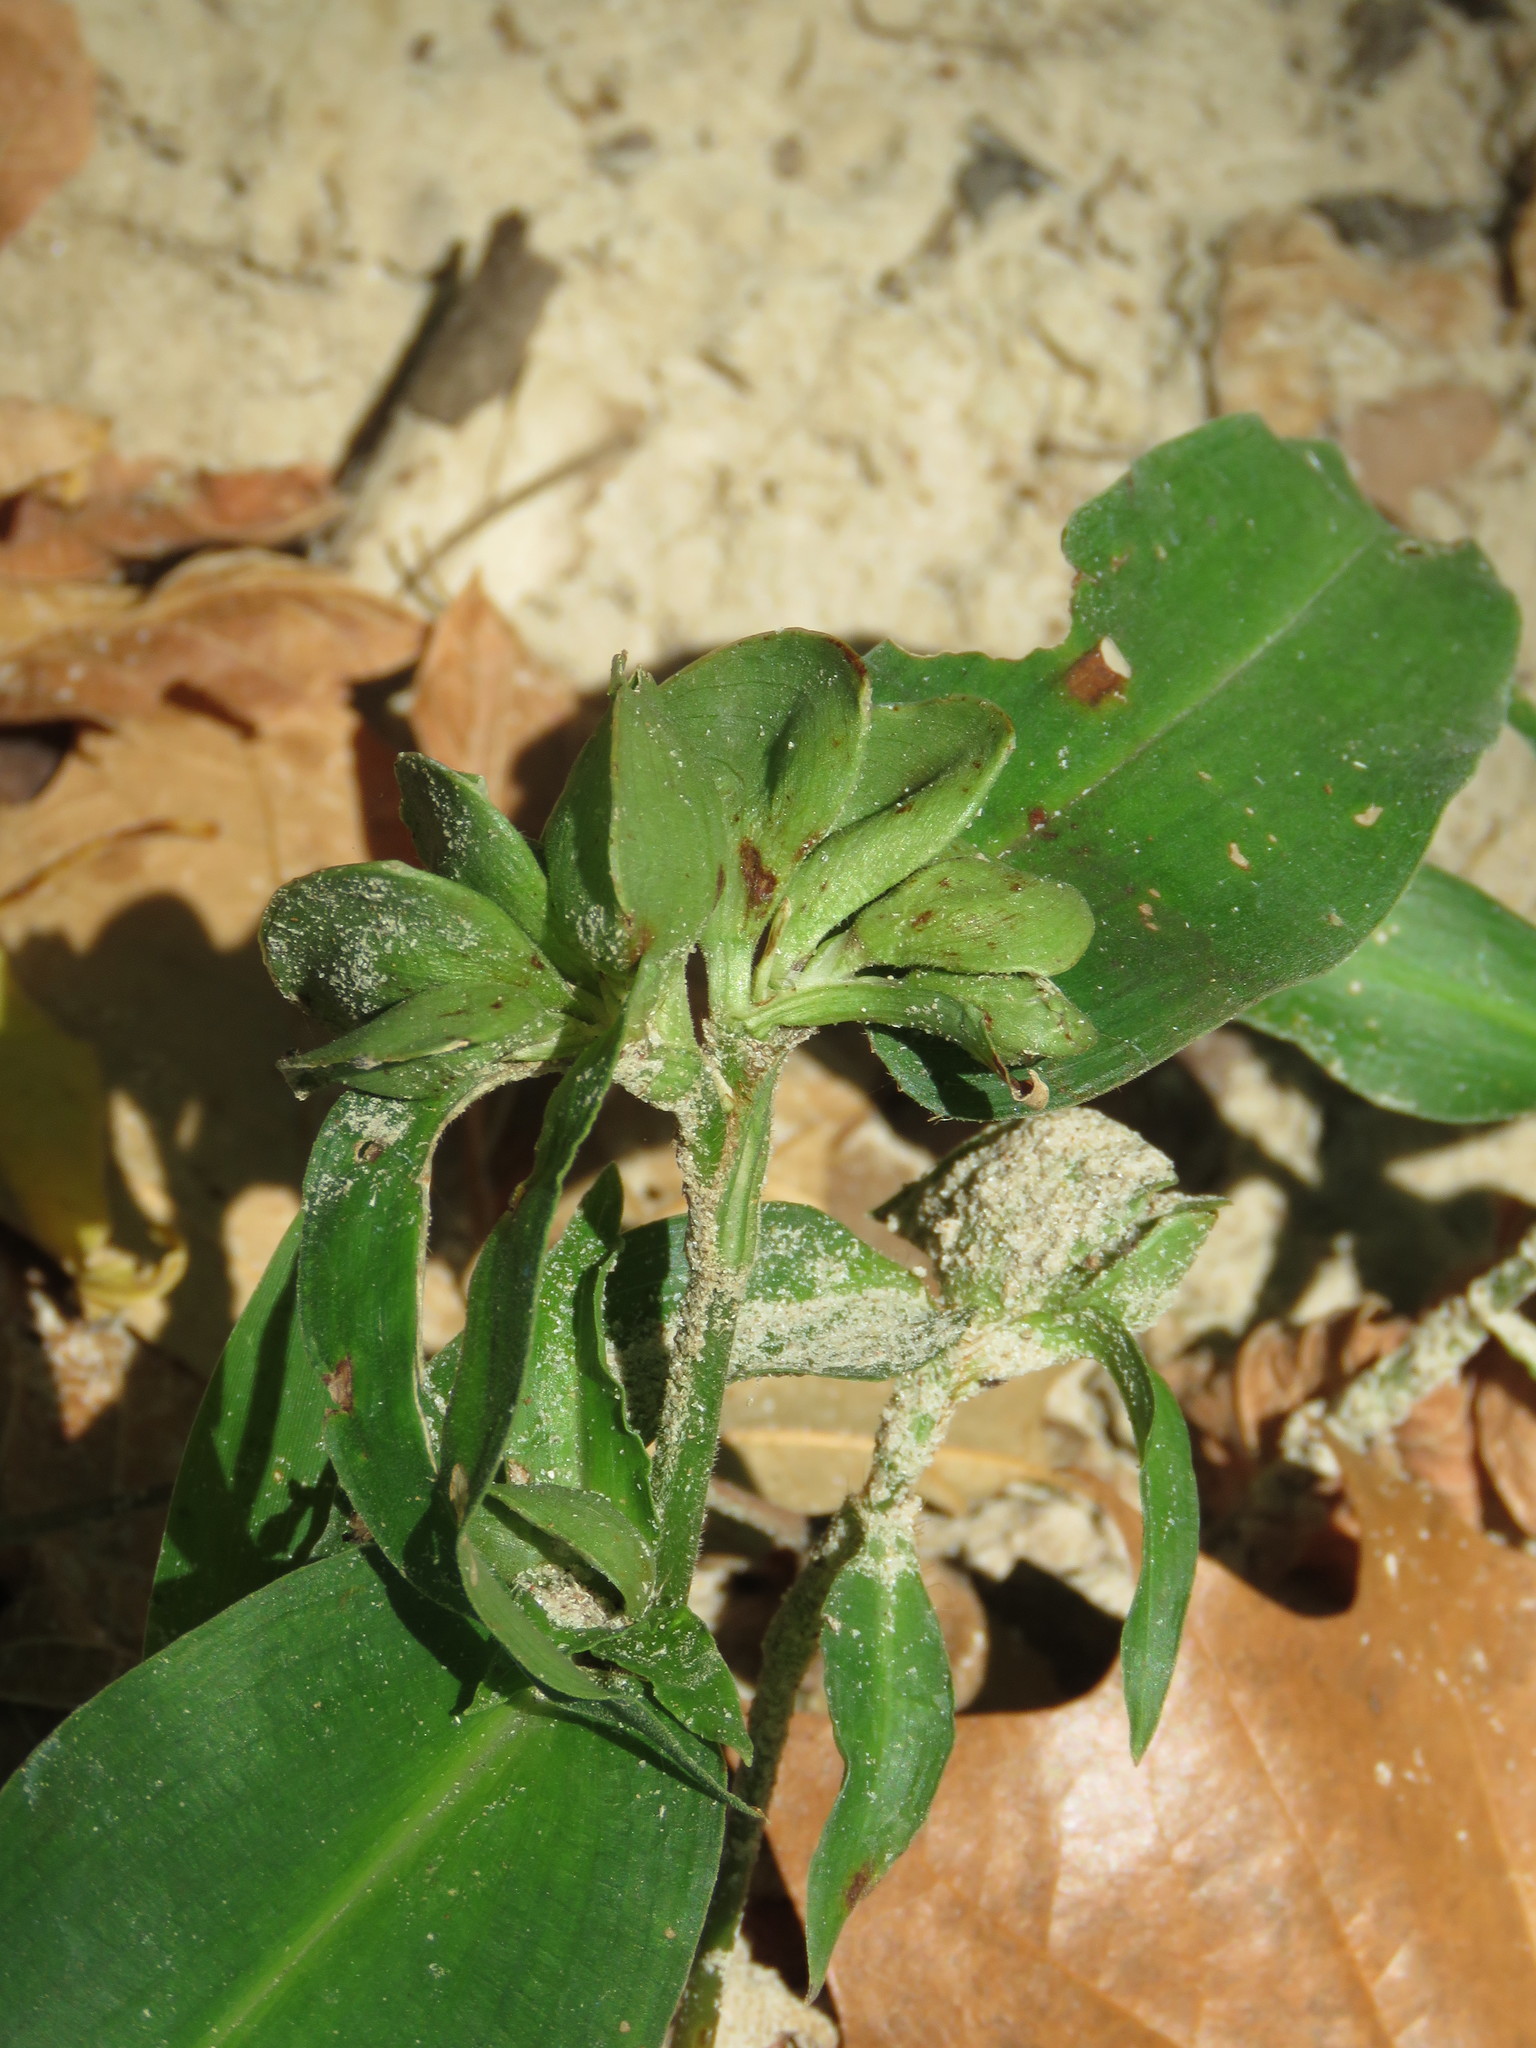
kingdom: Plantae
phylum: Tracheophyta
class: Liliopsida
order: Commelinales
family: Commelinaceae
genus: Commelina
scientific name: Commelina virginica
